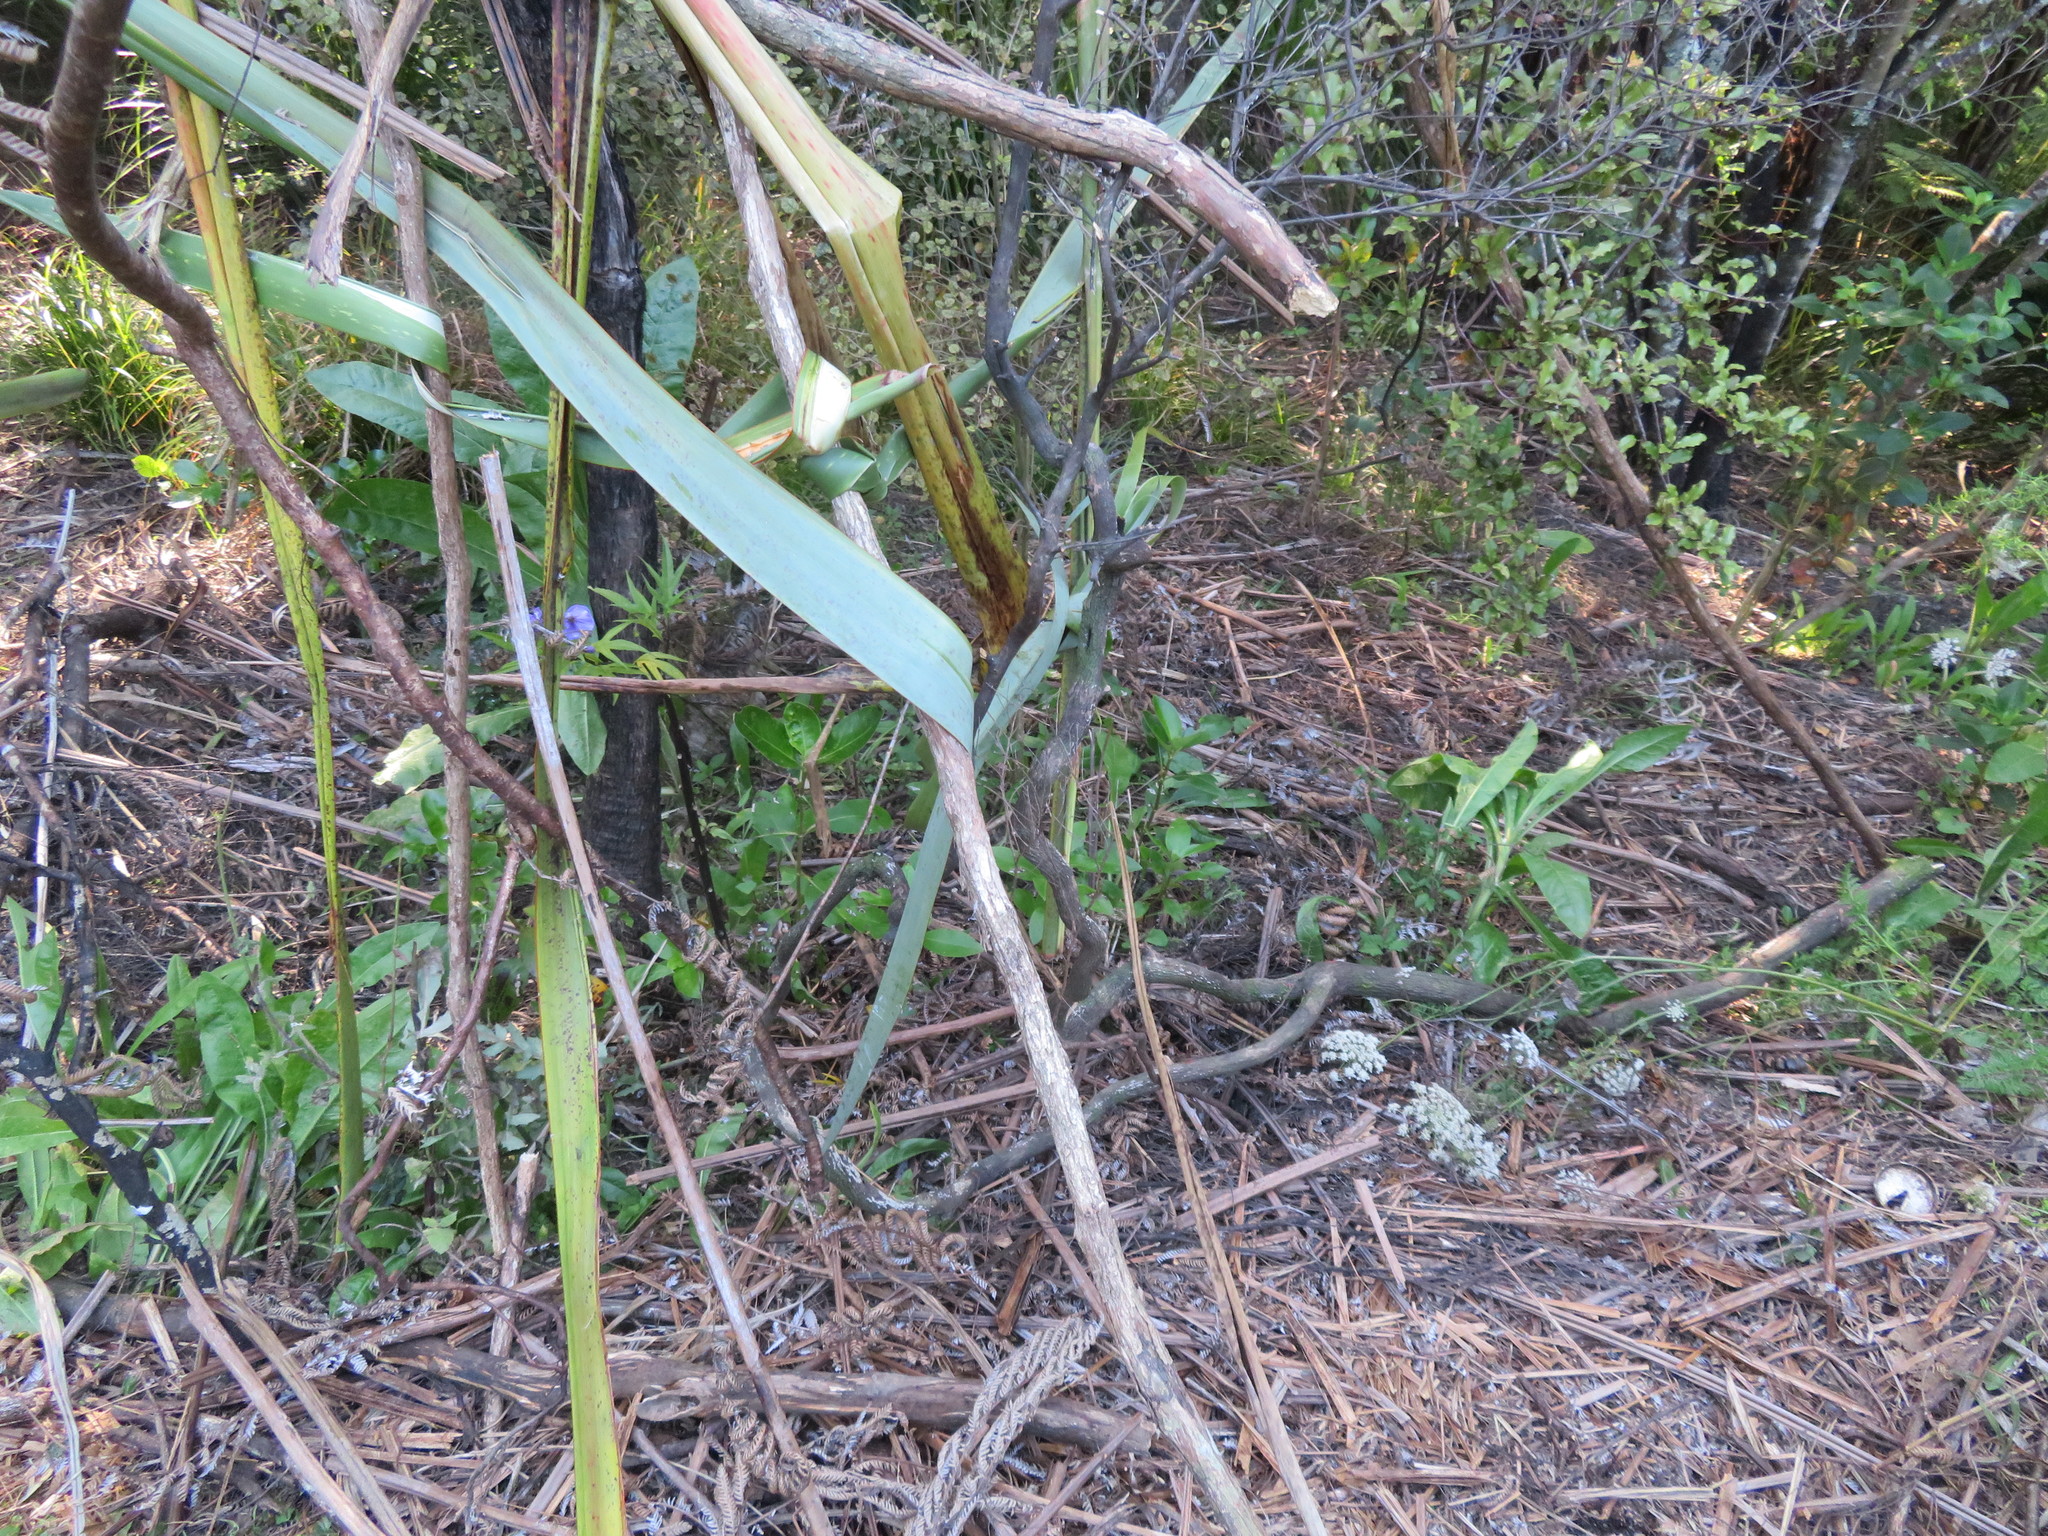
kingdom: Plantae
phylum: Tracheophyta
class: Magnoliopsida
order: Gentianales
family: Rubiaceae
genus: Coprosma
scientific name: Coprosma robusta
